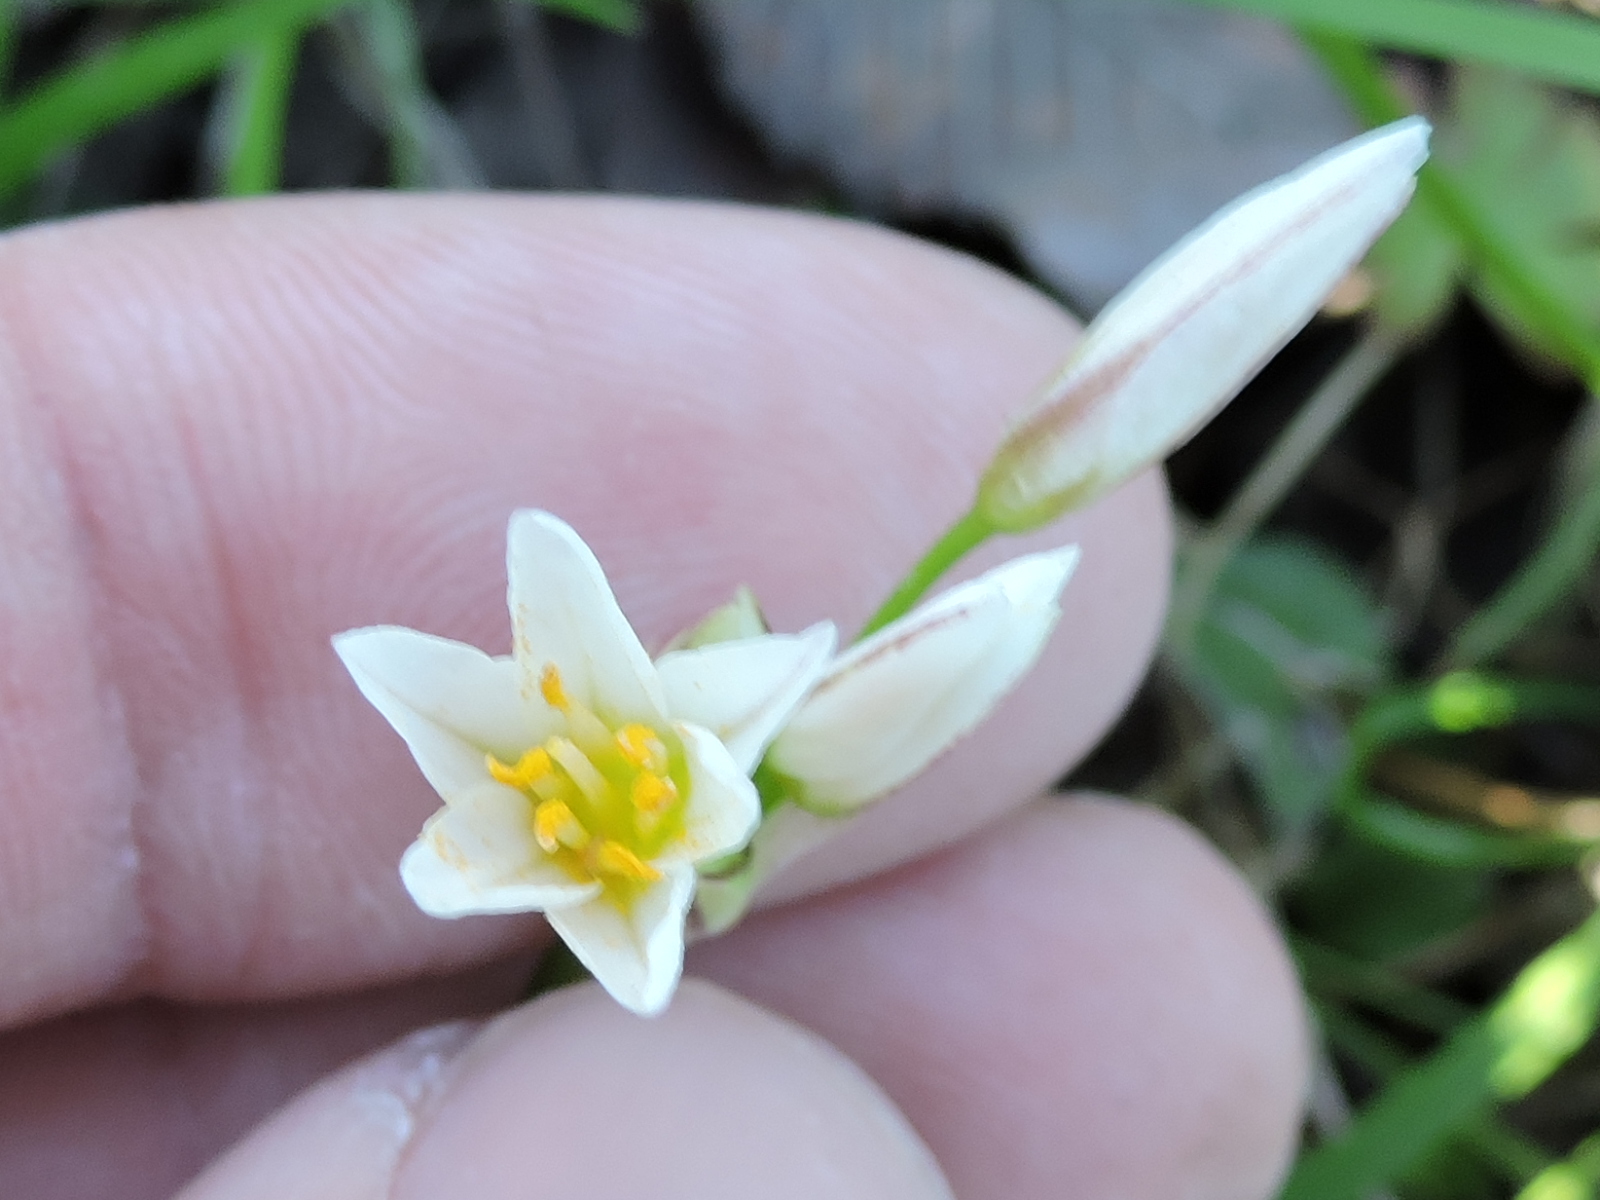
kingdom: Plantae
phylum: Tracheophyta
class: Liliopsida
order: Asparagales
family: Amaryllidaceae
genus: Nothoscordum
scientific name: Nothoscordum bivalve
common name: Crow-poison
